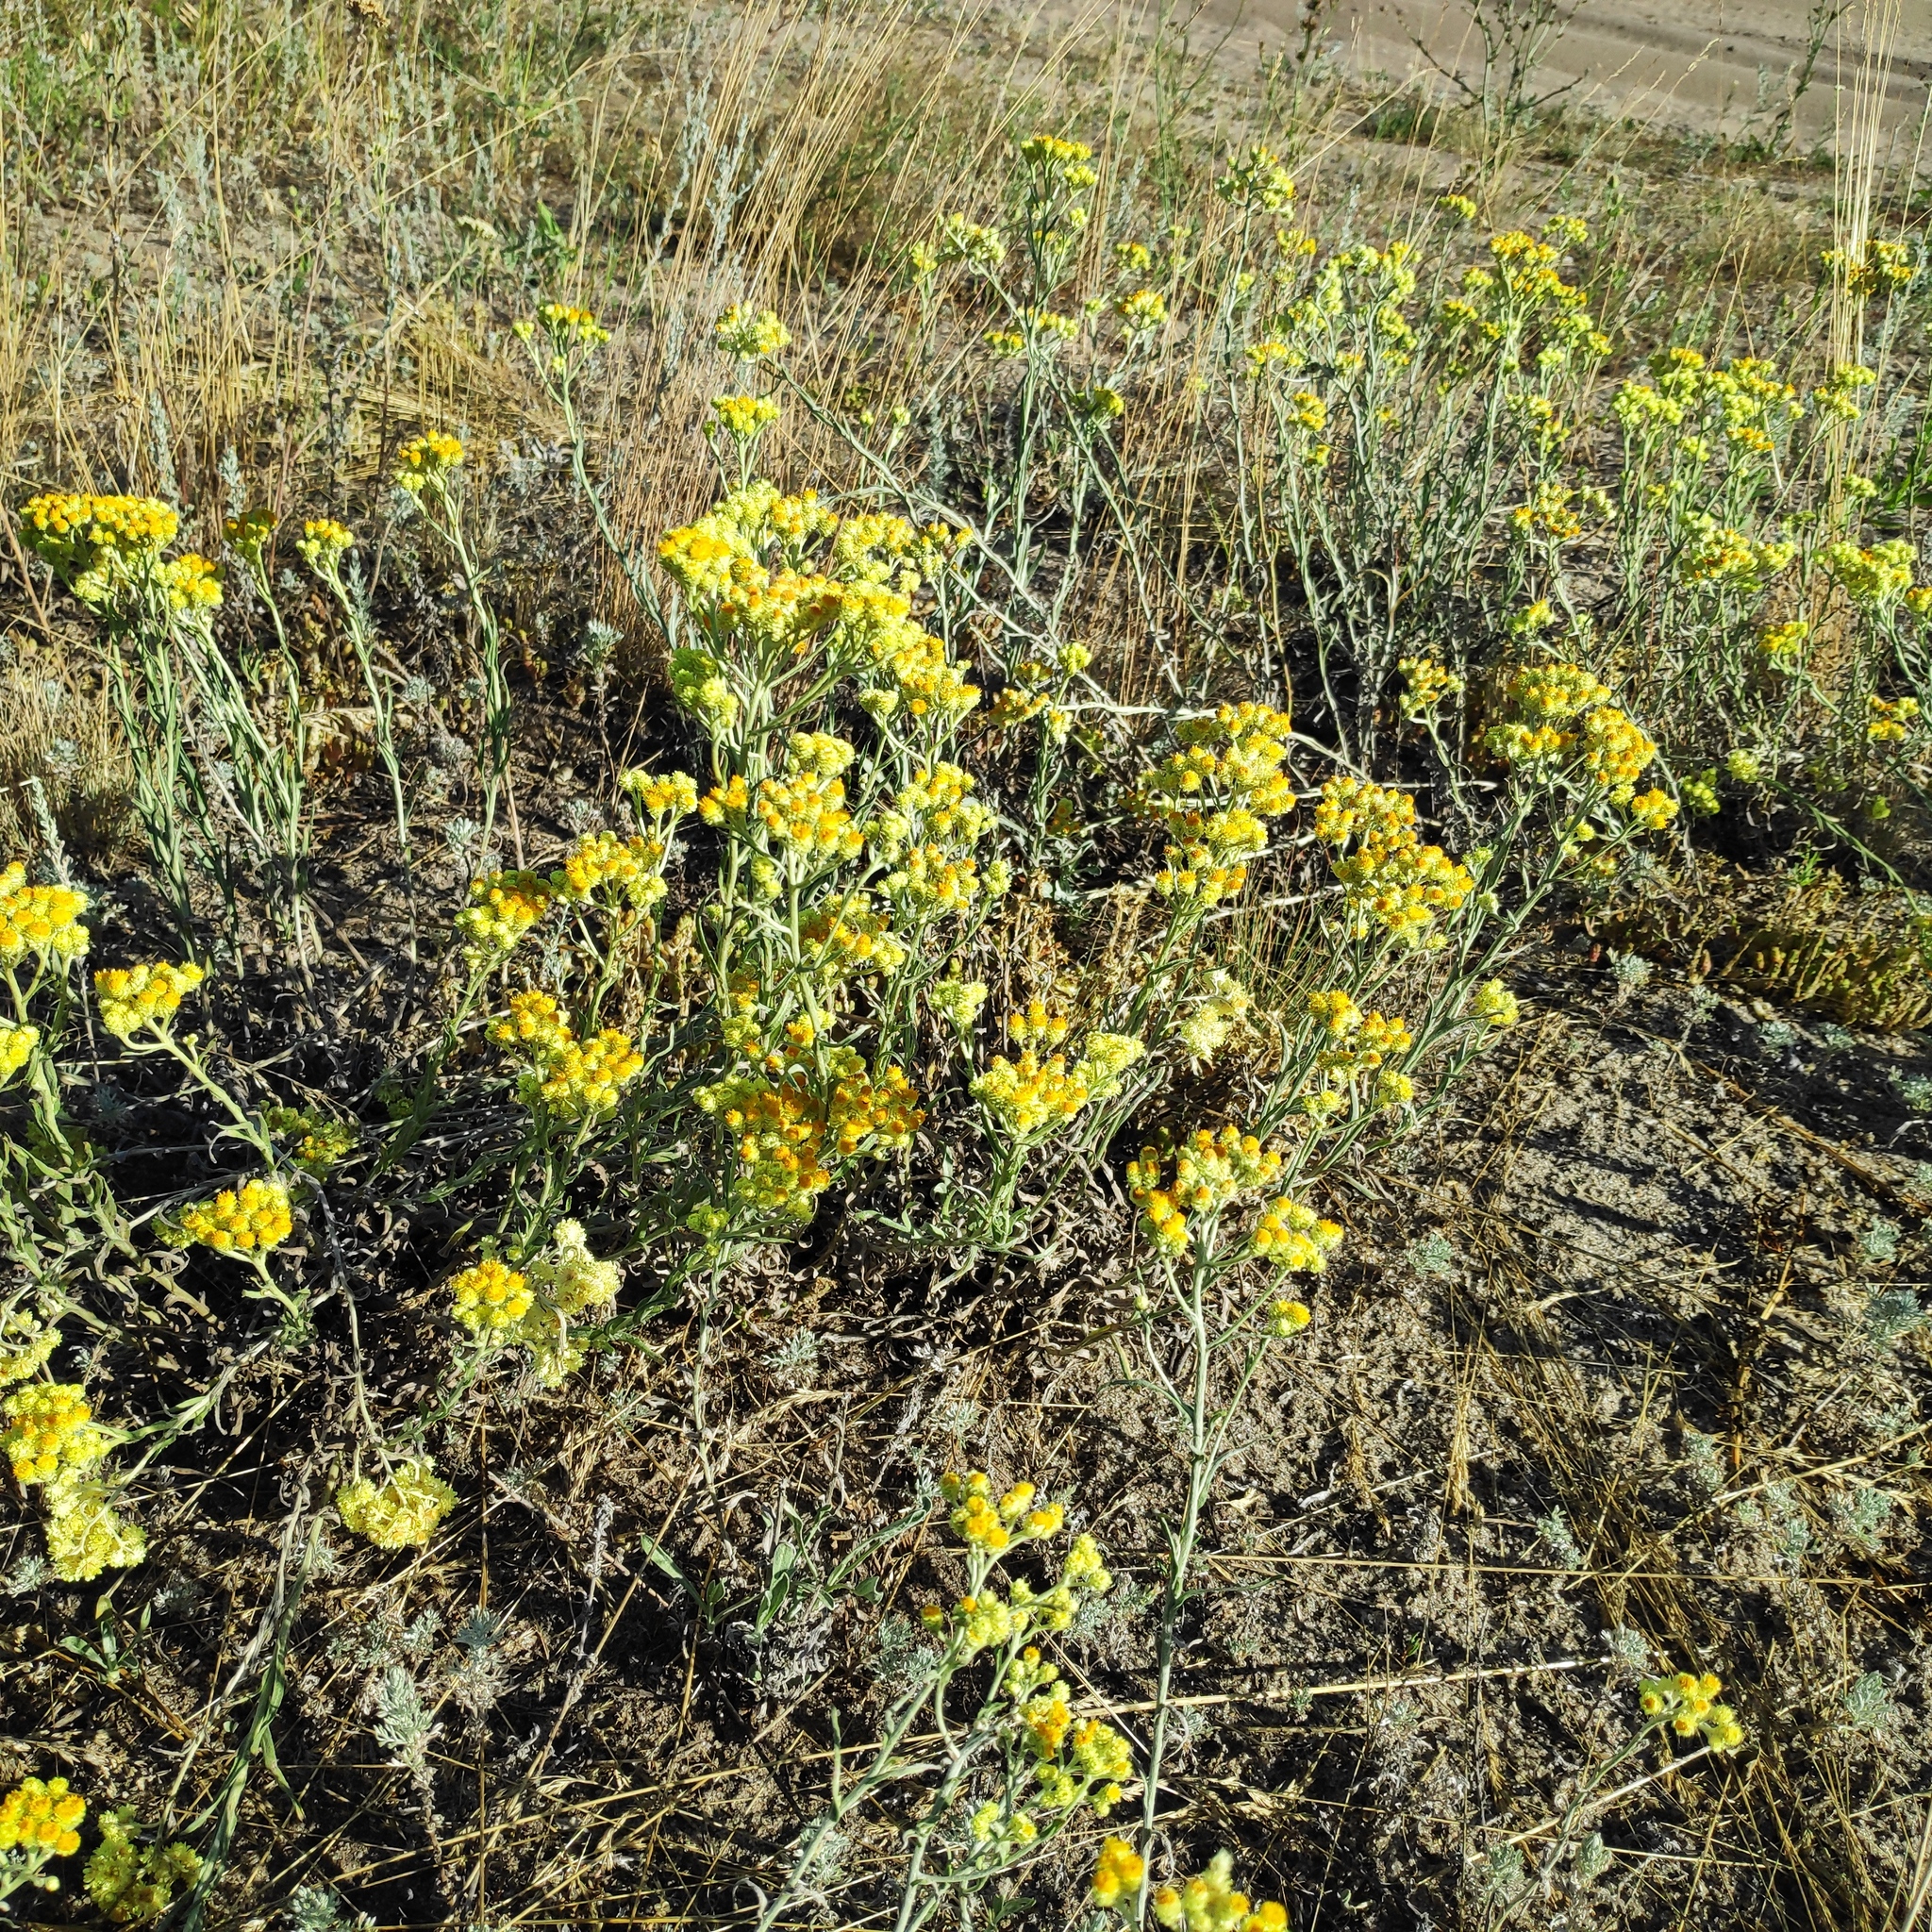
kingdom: Plantae
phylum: Tracheophyta
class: Magnoliopsida
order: Asterales
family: Asteraceae
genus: Helichrysum
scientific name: Helichrysum arenarium
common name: Strawflower
